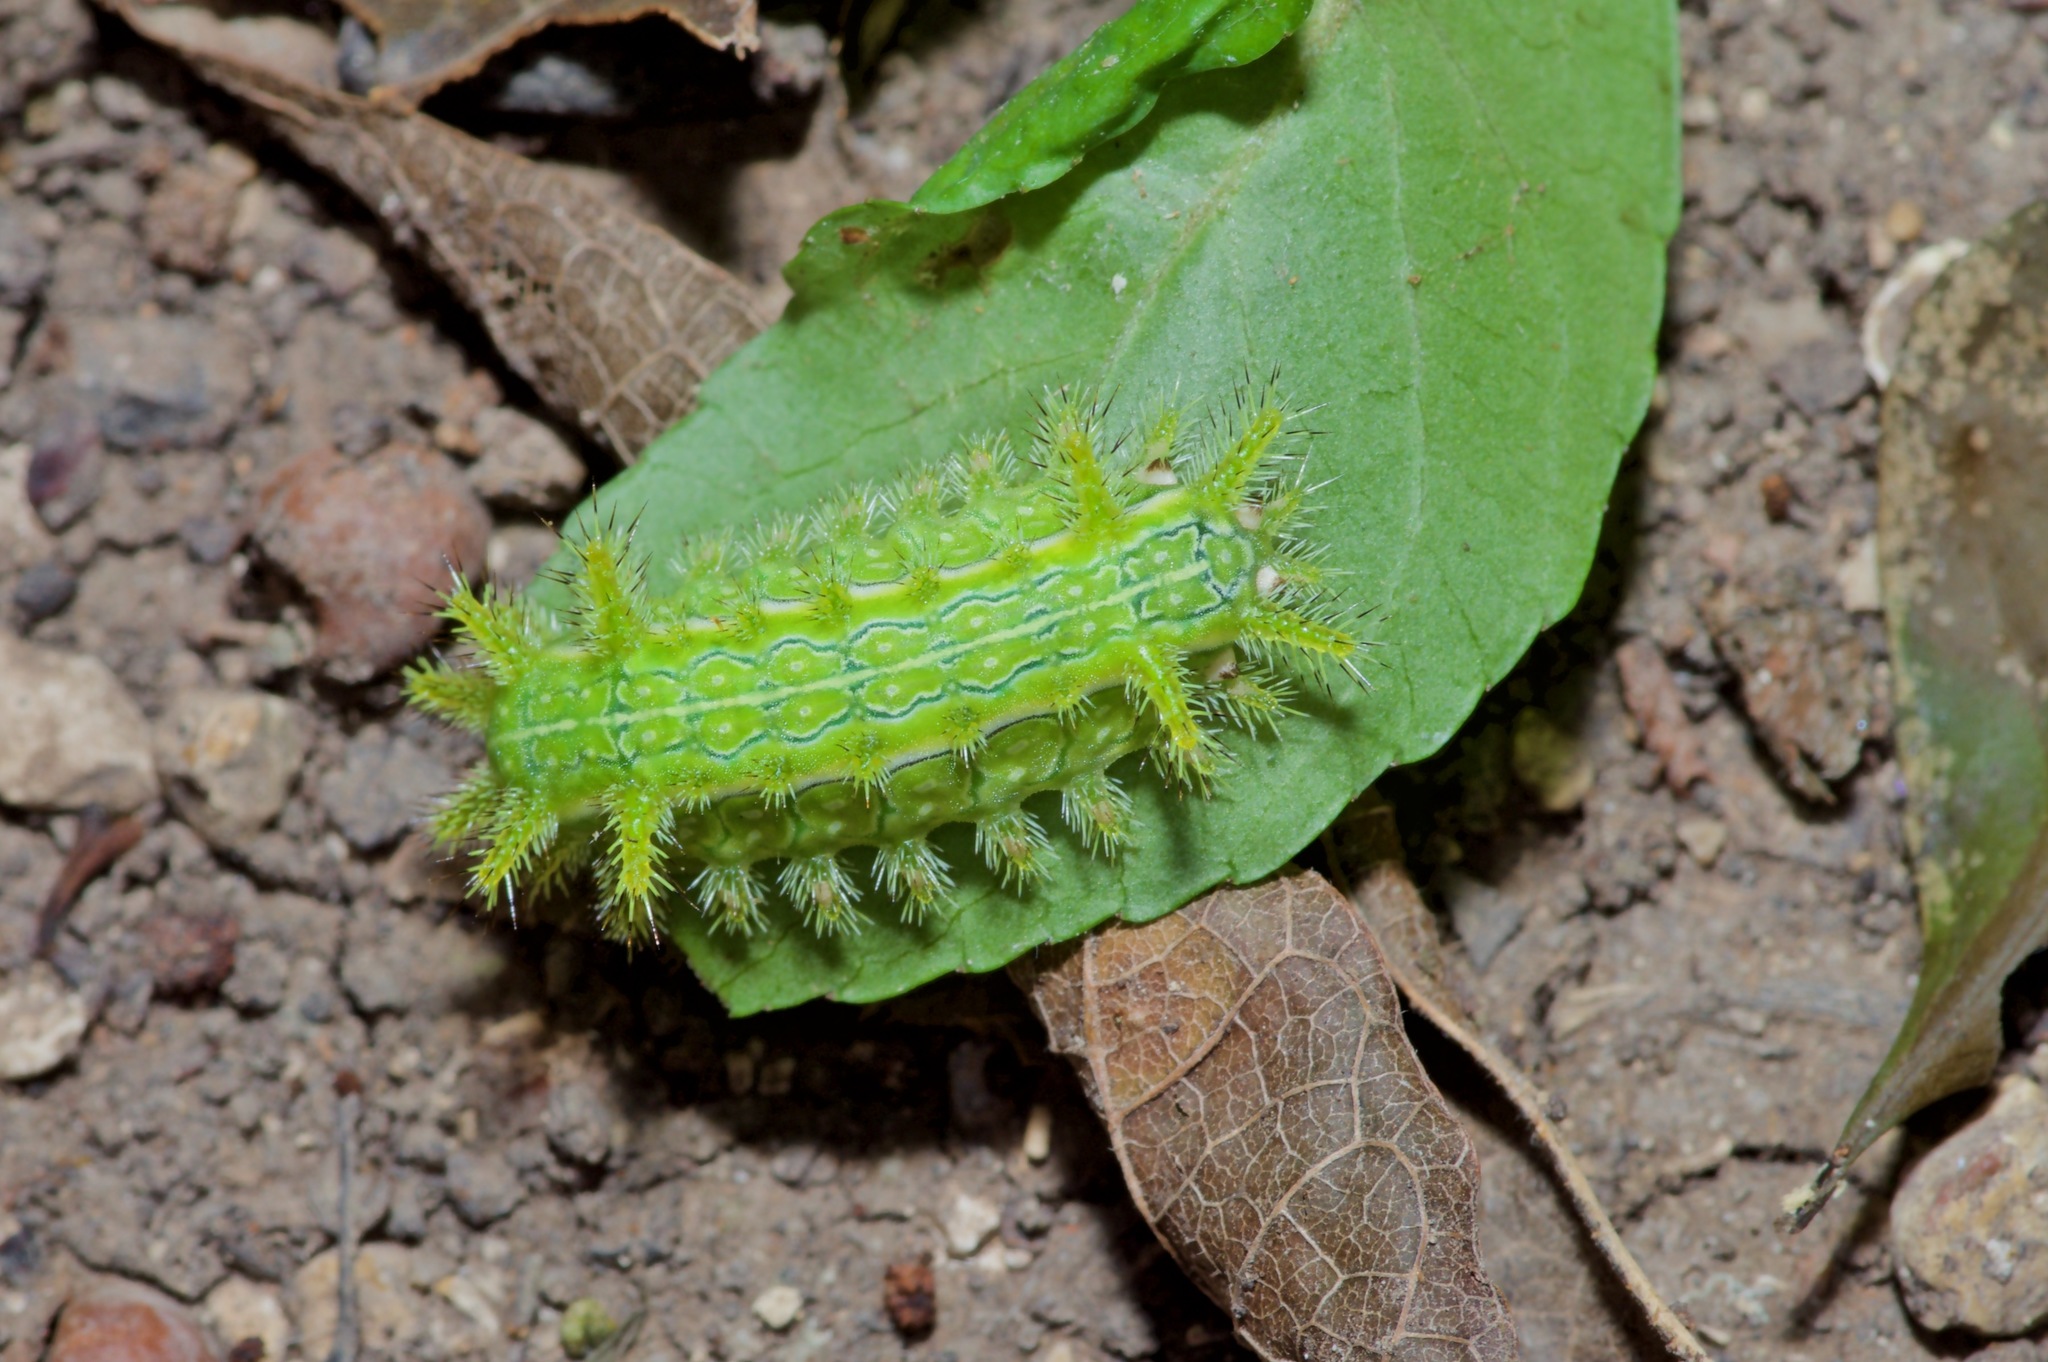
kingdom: Animalia
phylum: Arthropoda
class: Insecta
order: Lepidoptera
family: Limacodidae
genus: Euclea
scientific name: Euclea incisa
